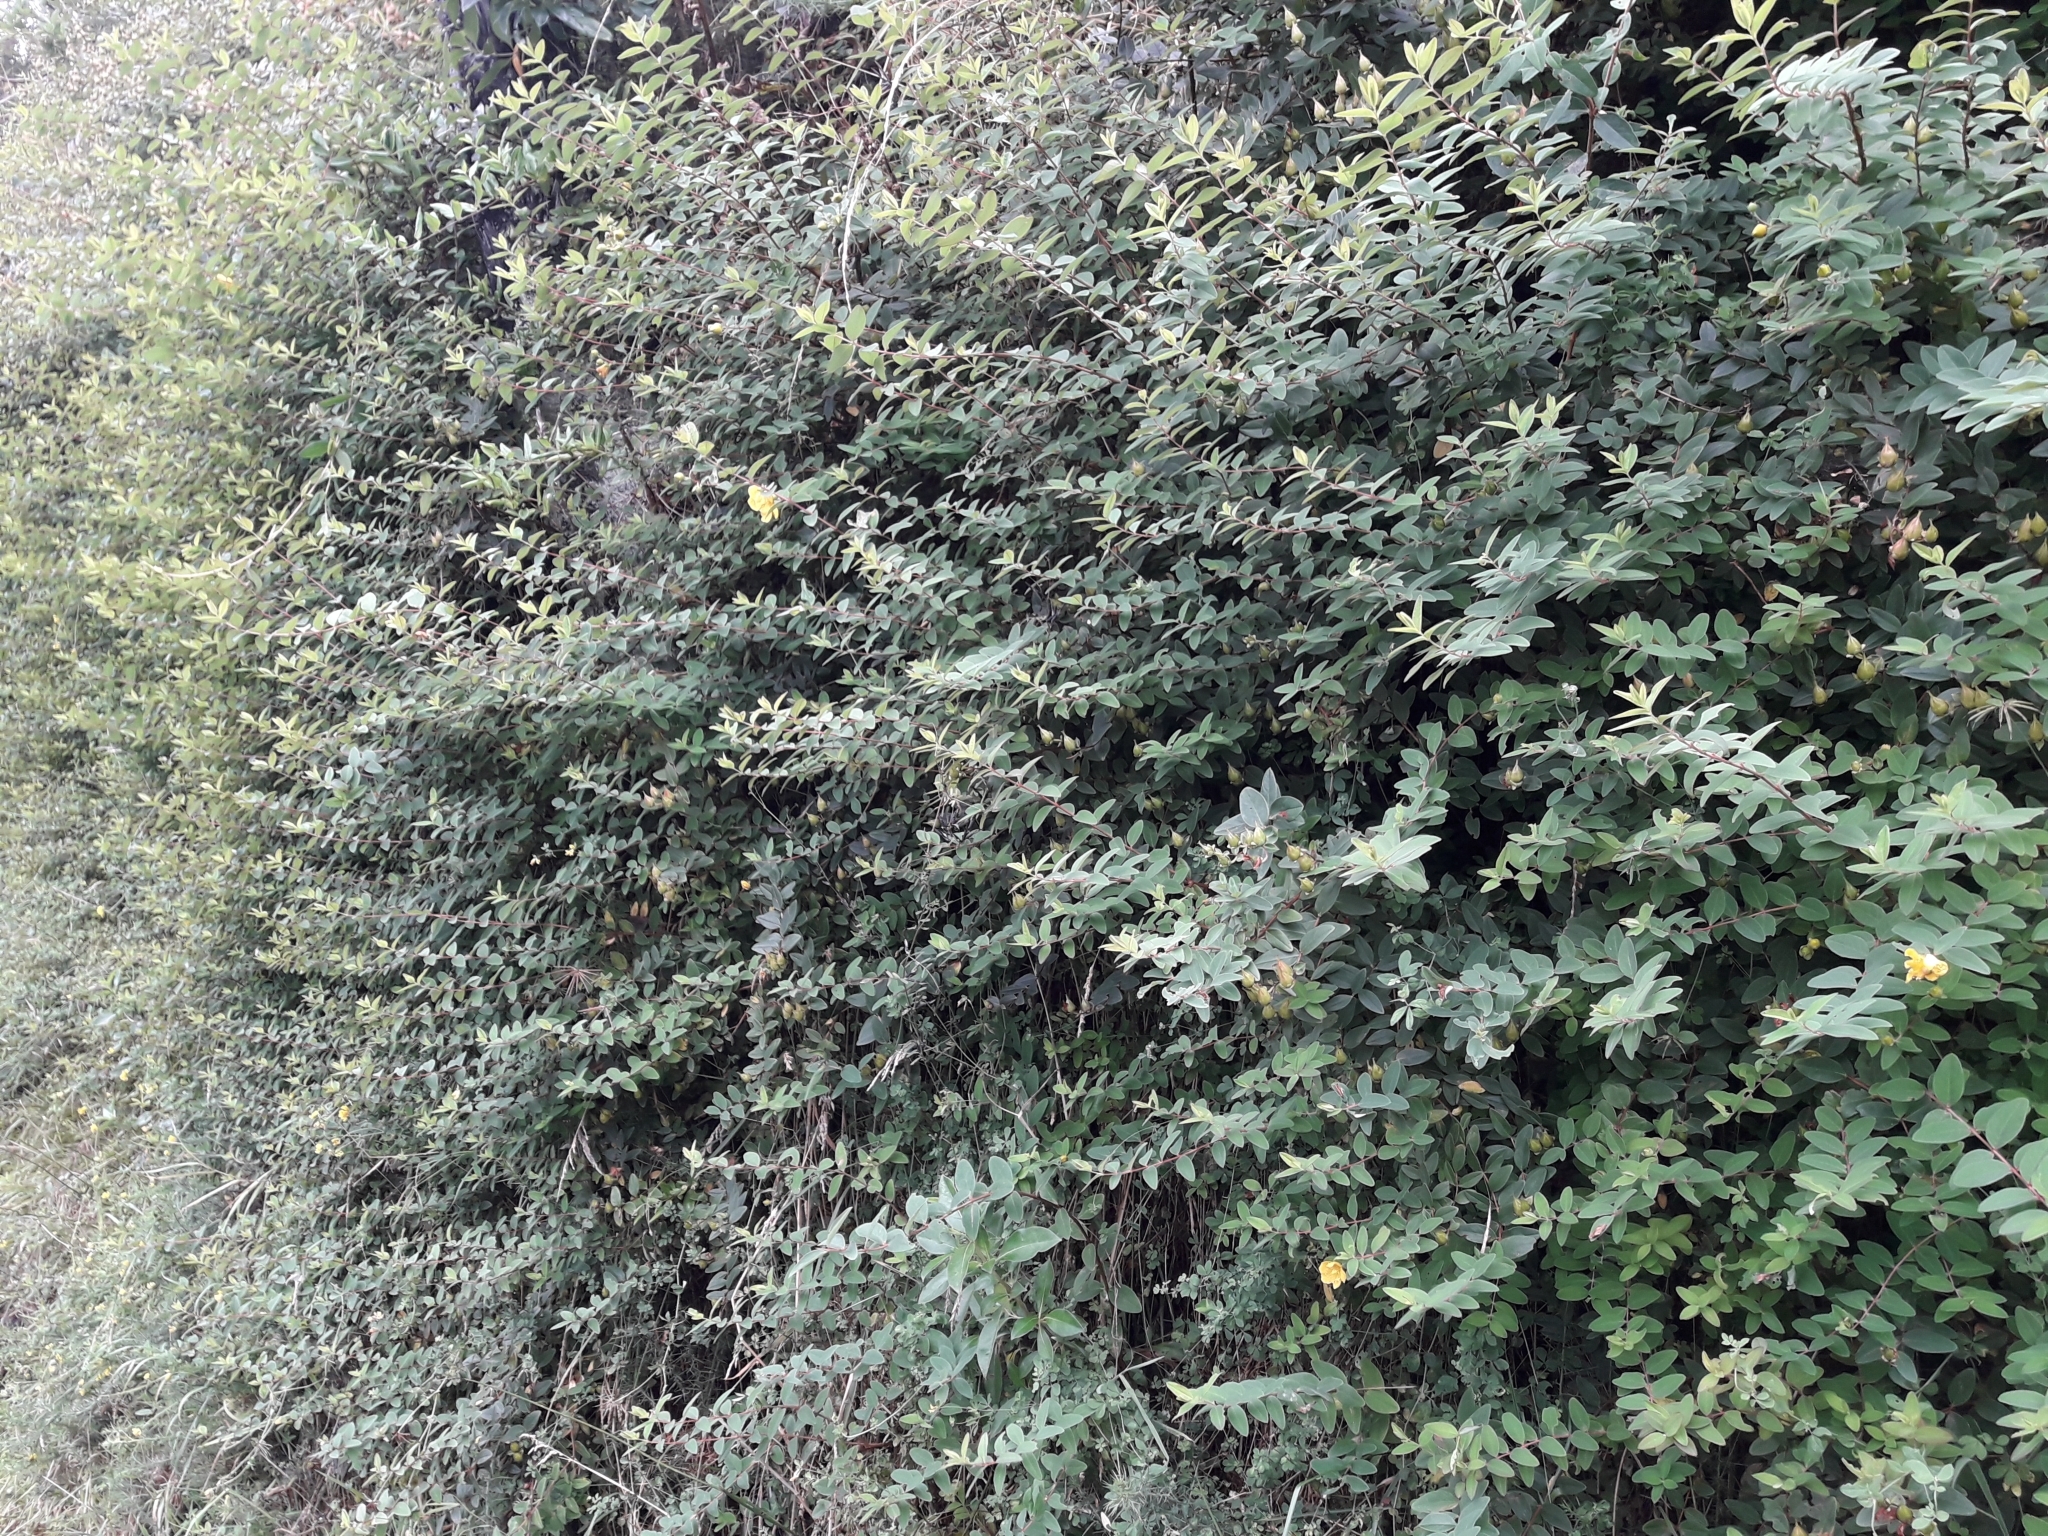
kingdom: Plantae
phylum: Tracheophyta
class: Magnoliopsida
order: Malpighiales
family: Hypericaceae
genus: Hypericum
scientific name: Hypericum henryi
